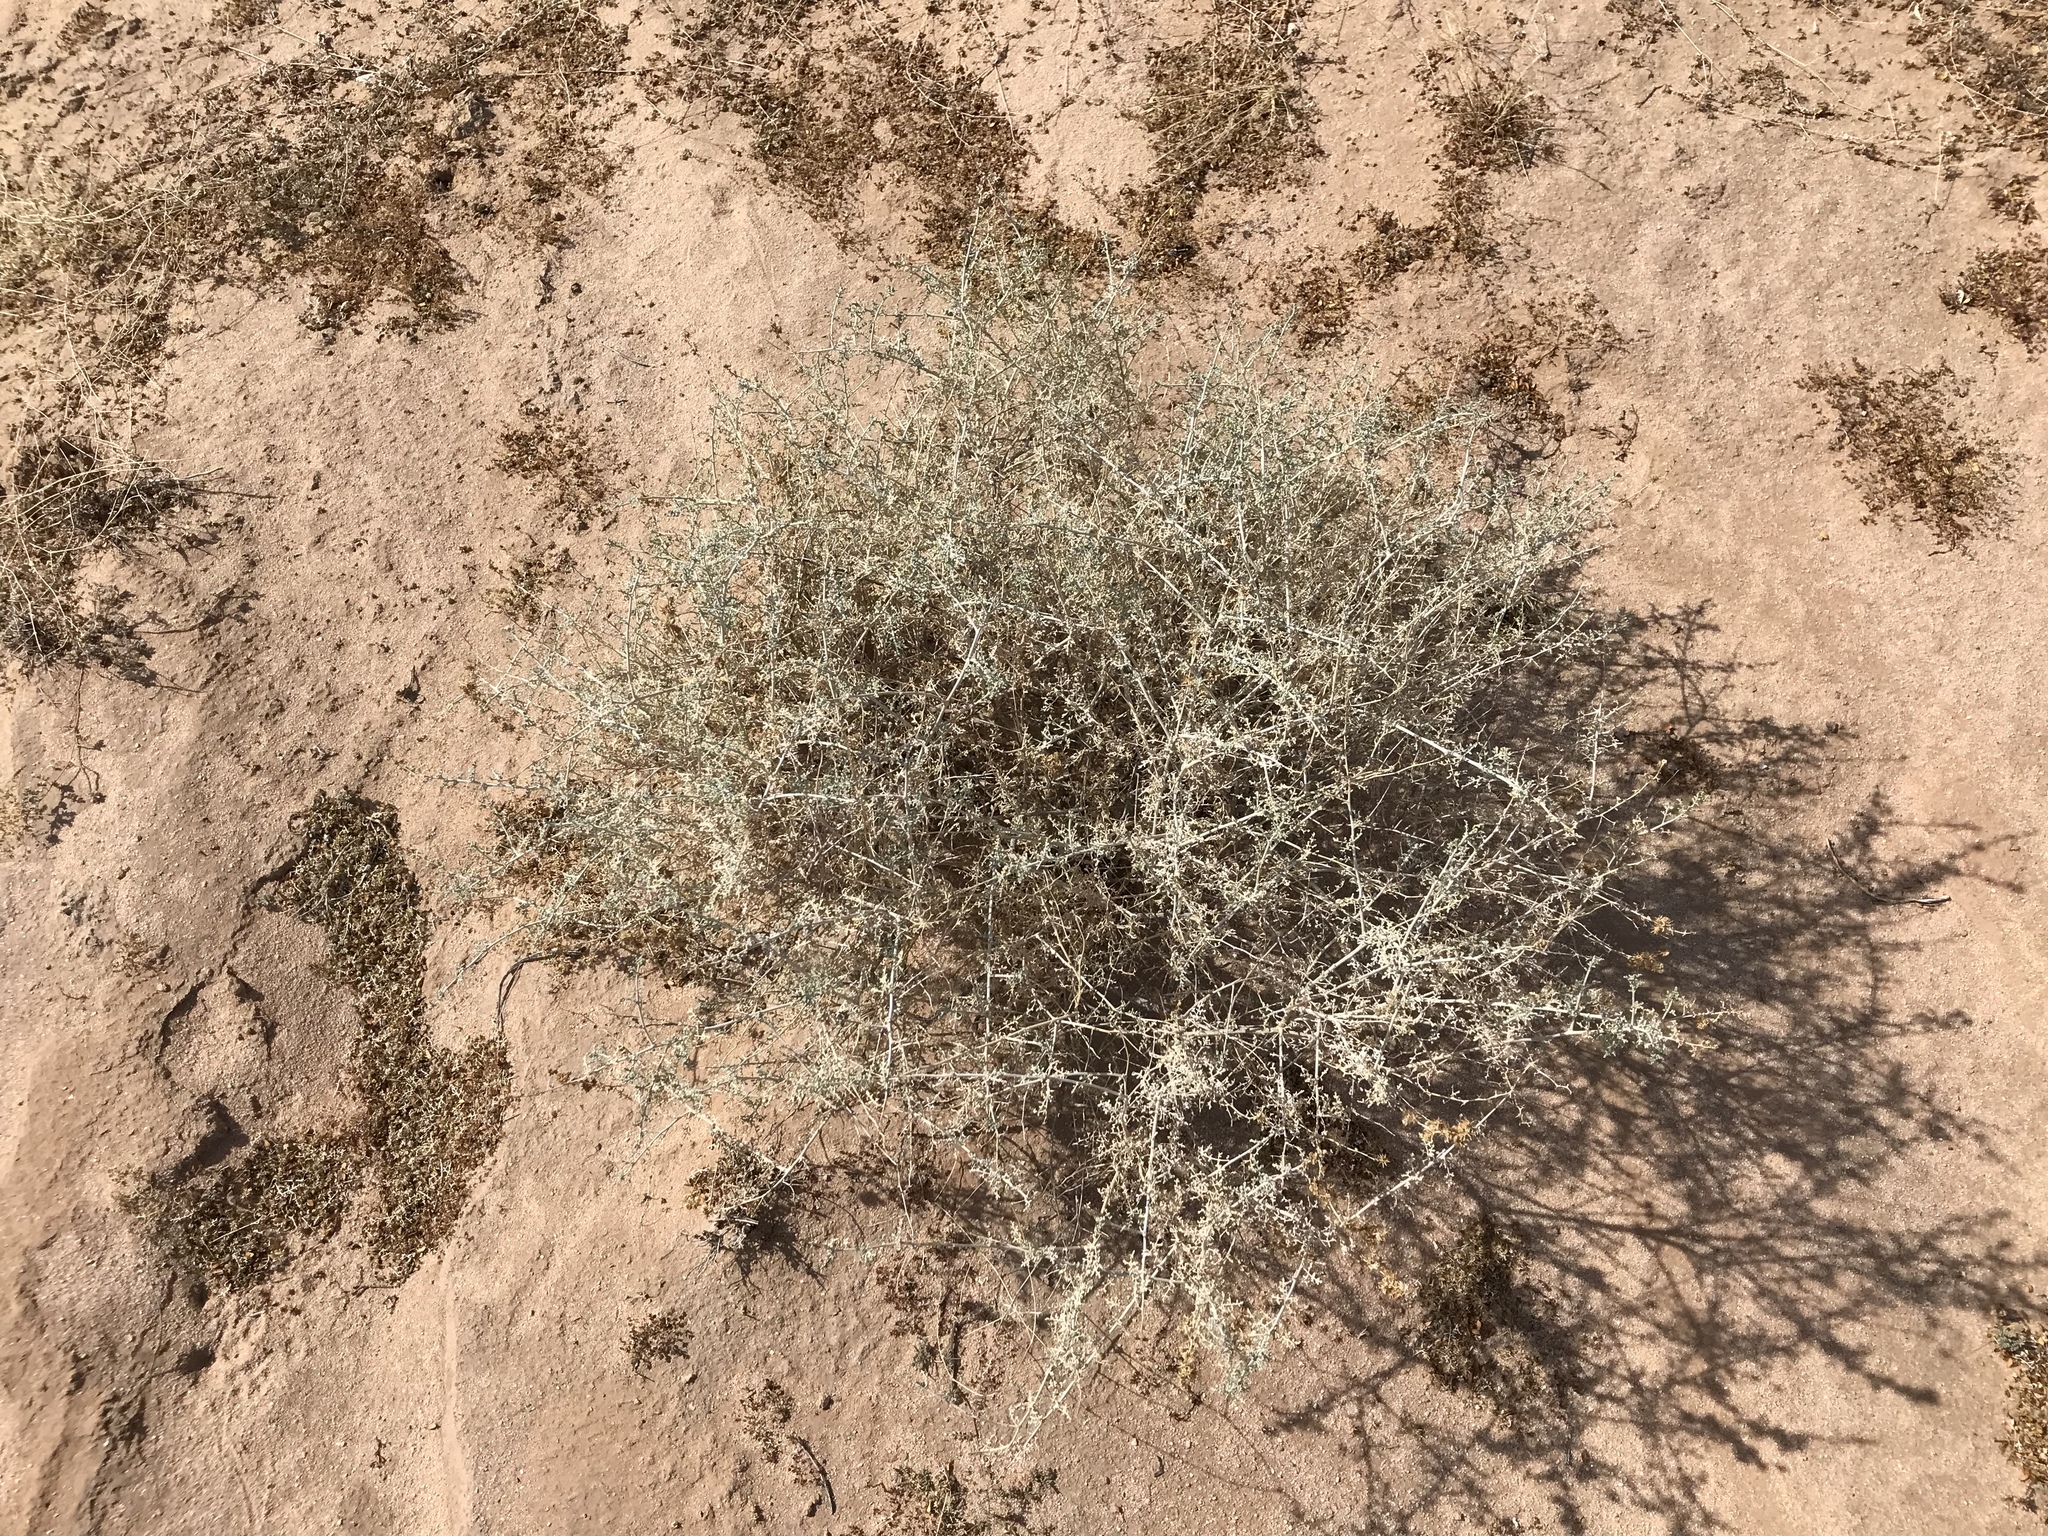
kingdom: Plantae
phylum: Tracheophyta
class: Magnoliopsida
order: Asterales
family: Asteraceae
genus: Ambrosia
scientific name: Ambrosia dumosa
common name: Bur-sage
